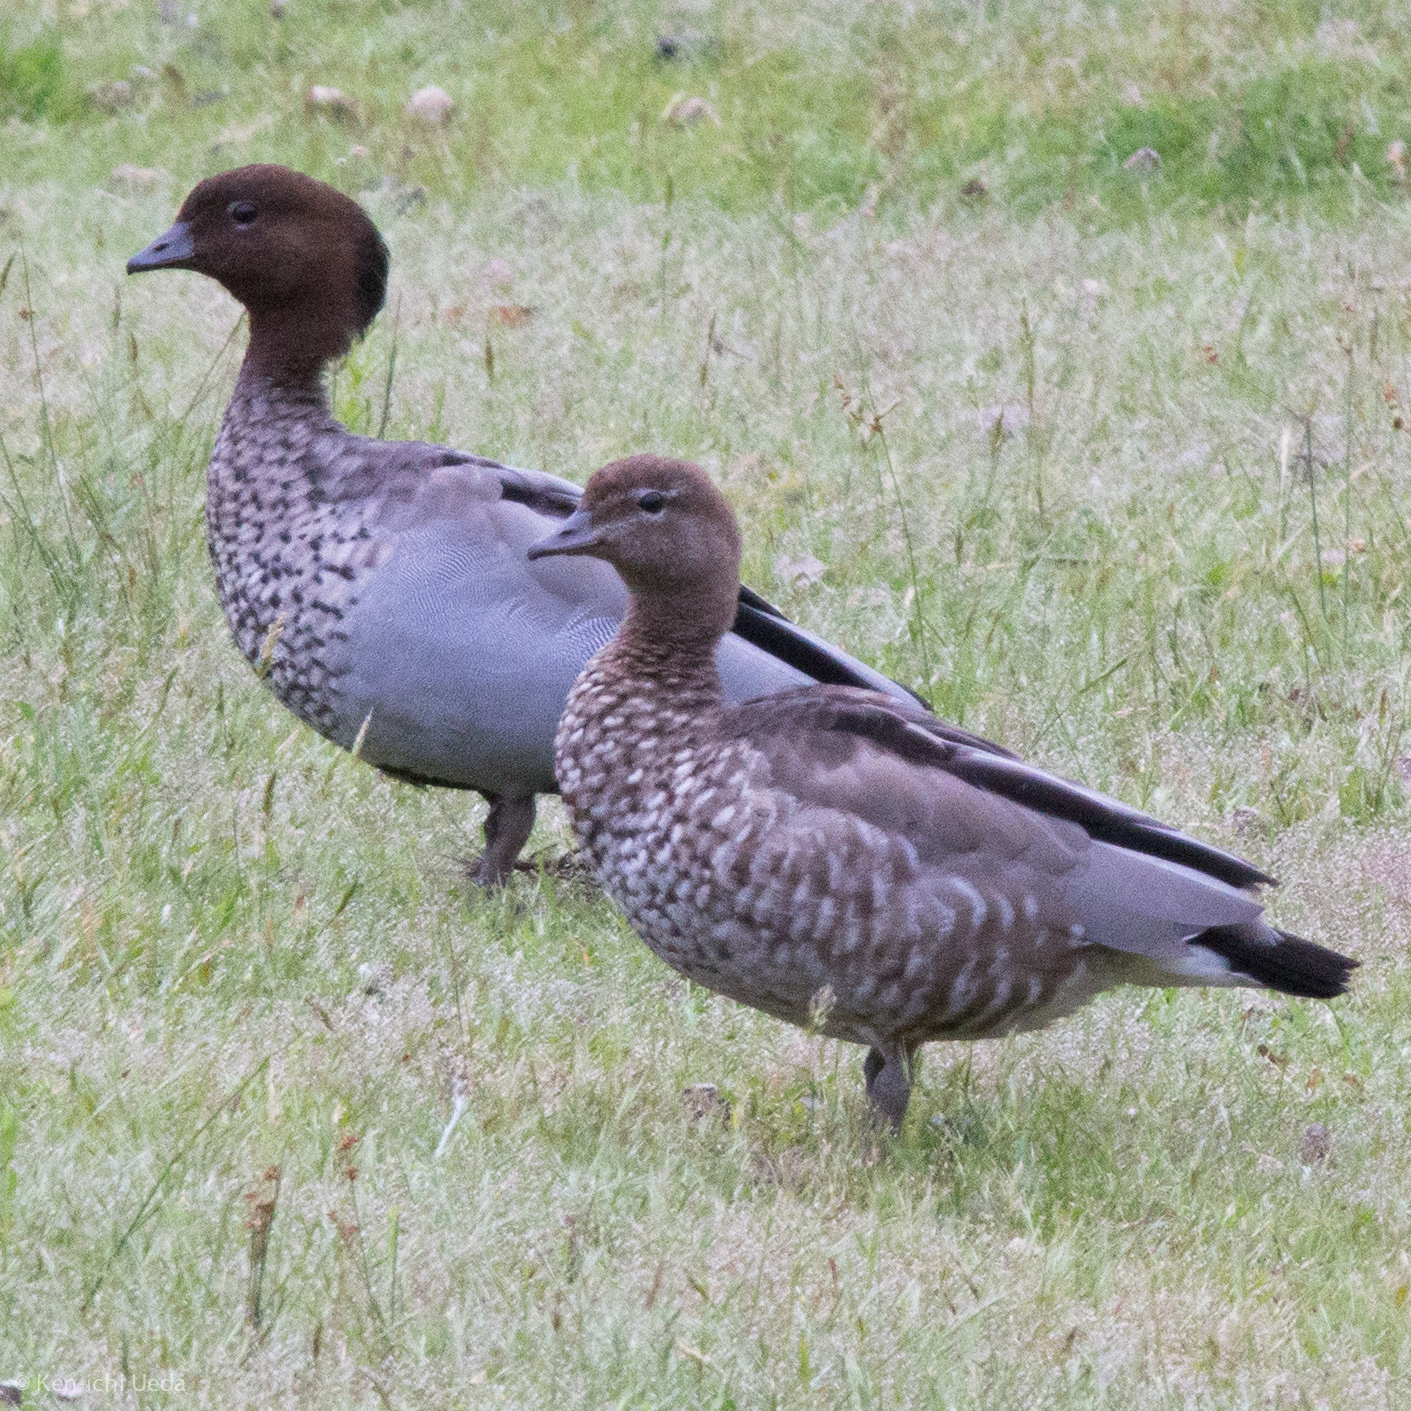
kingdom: Animalia
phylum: Chordata
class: Aves
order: Anseriformes
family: Anatidae
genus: Chenonetta
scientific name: Chenonetta jubata
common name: Maned duck
